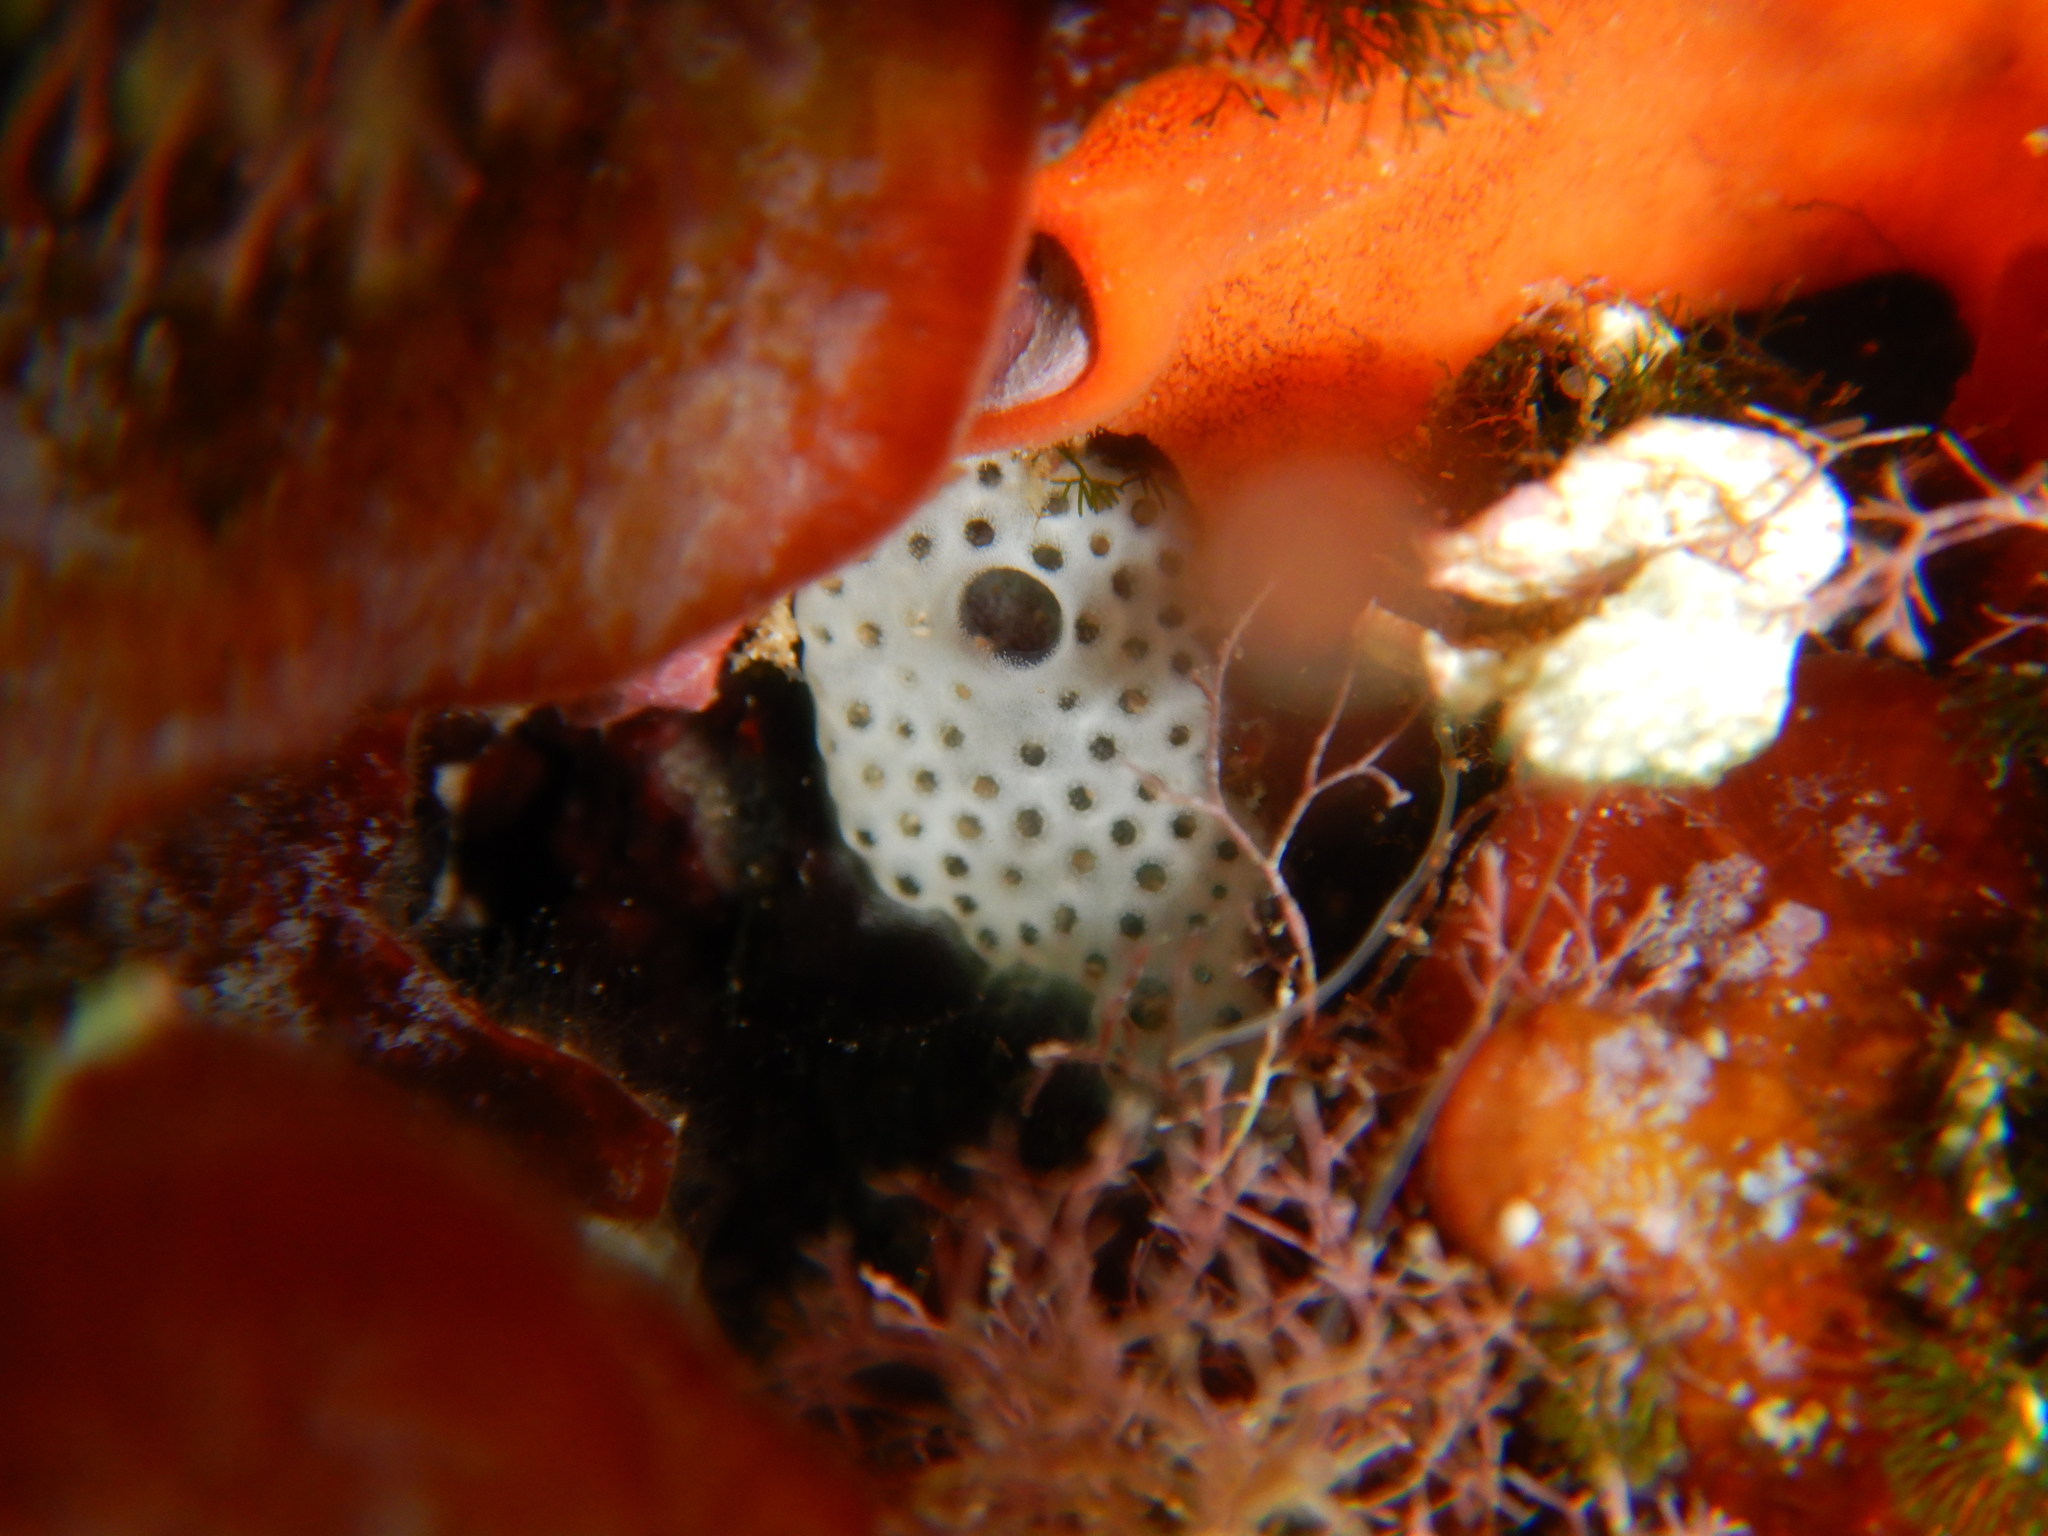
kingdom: Animalia
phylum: Chordata
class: Ascidiacea
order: Aplousobranchia
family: Didemnidae
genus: Lissoclinum
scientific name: Lissoclinum perforatum
